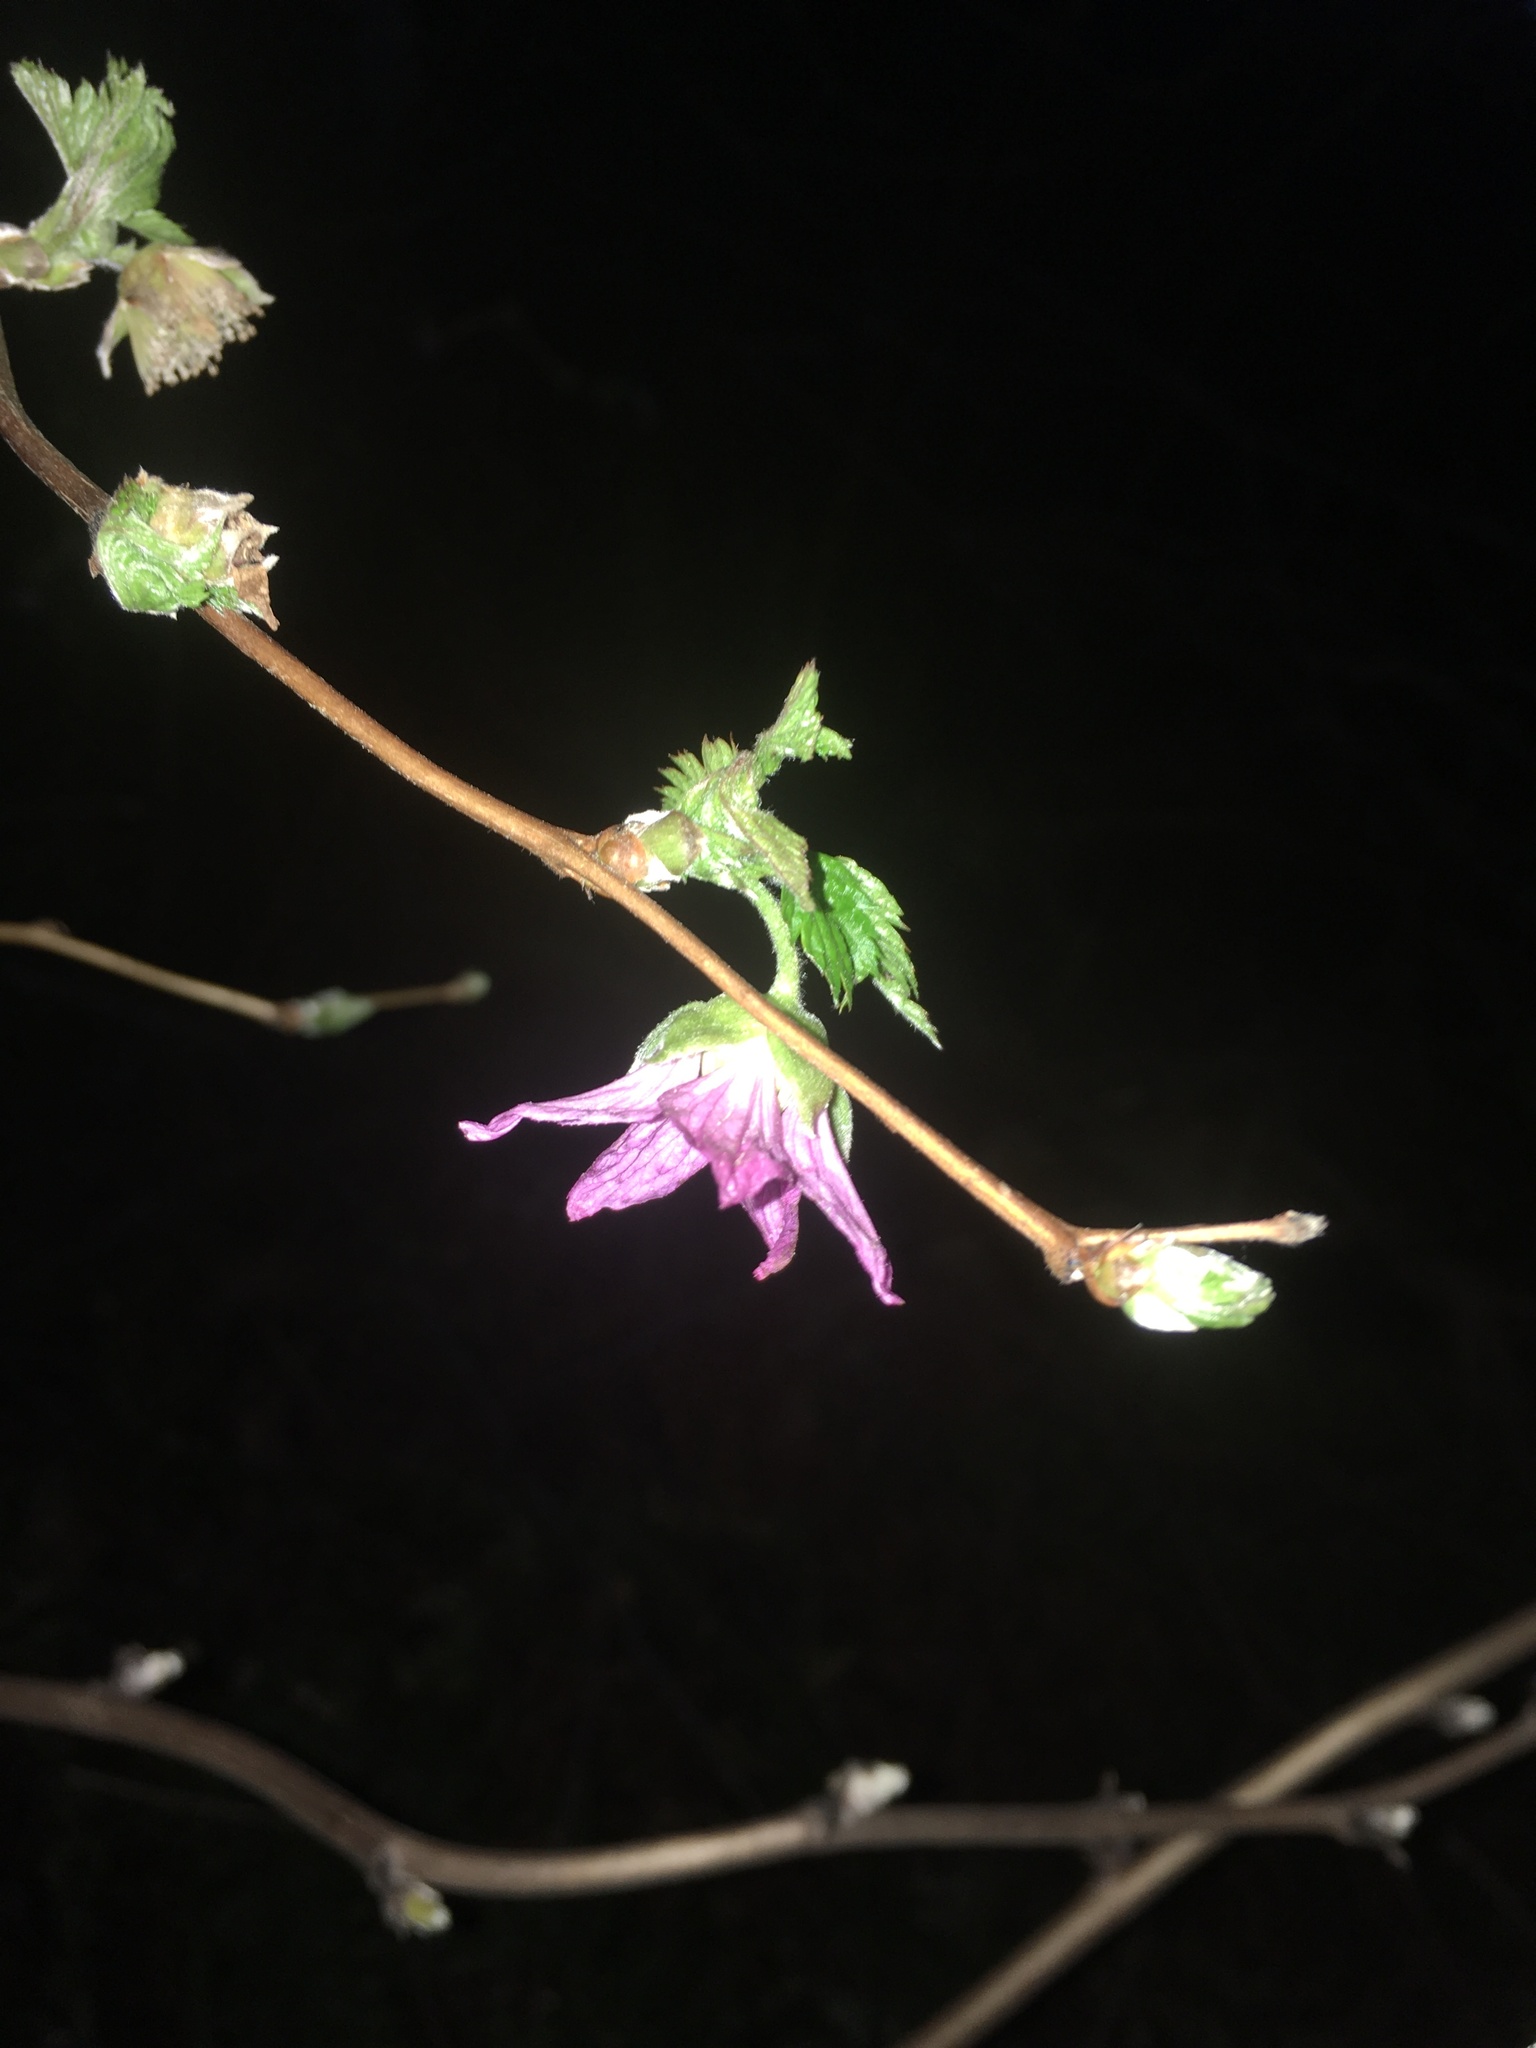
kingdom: Plantae
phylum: Tracheophyta
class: Magnoliopsida
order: Rosales
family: Rosaceae
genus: Rubus
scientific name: Rubus spectabilis
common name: Salmonberry
